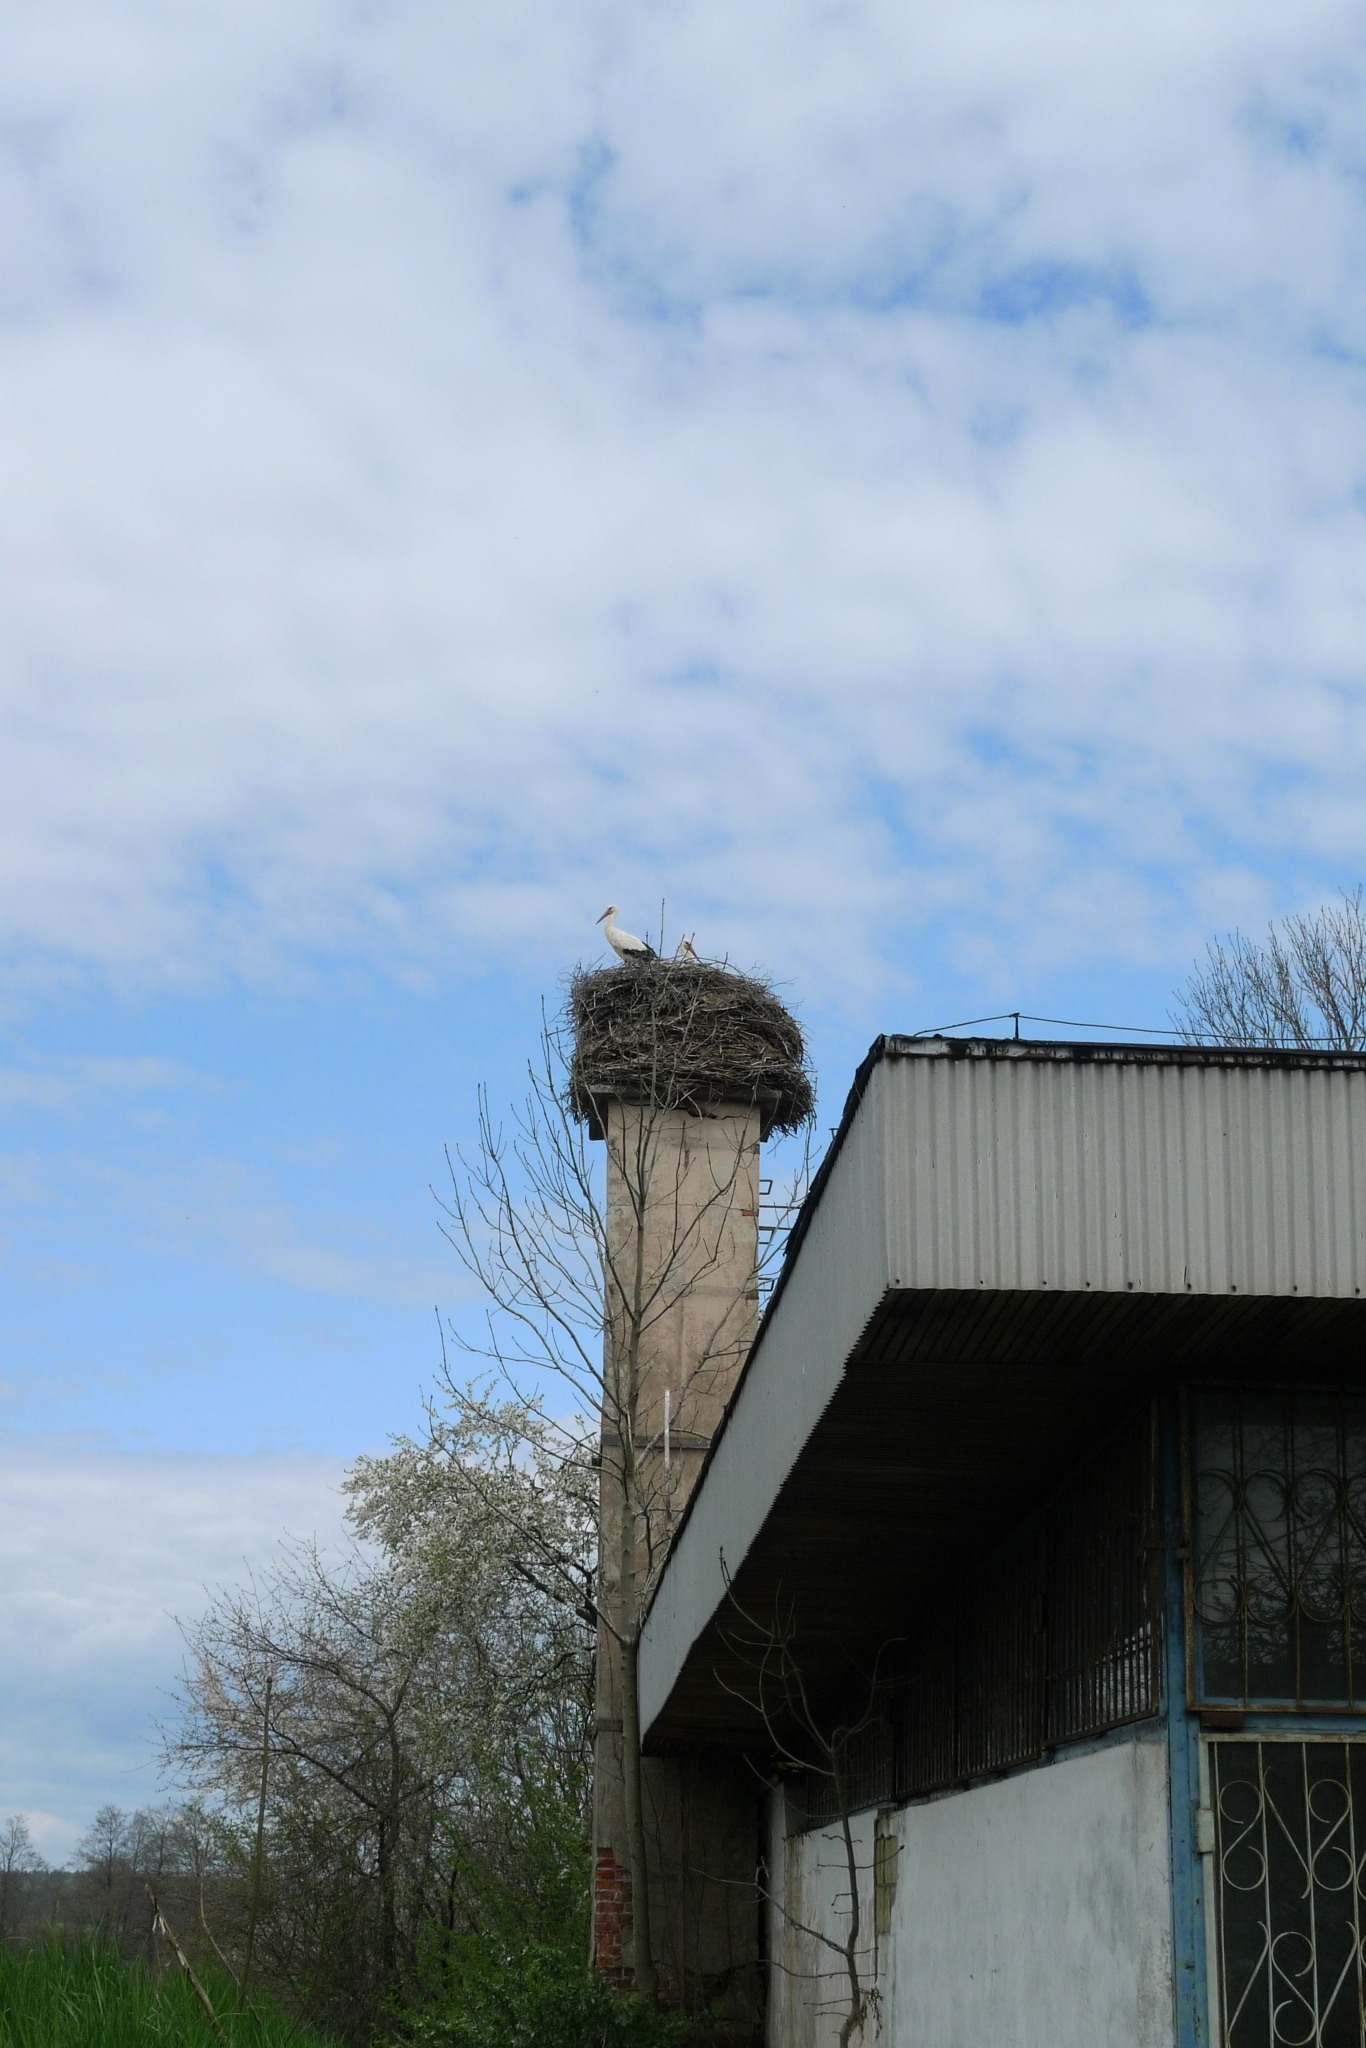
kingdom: Animalia
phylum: Chordata
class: Aves
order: Ciconiiformes
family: Ciconiidae
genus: Ciconia
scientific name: Ciconia ciconia
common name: White stork
